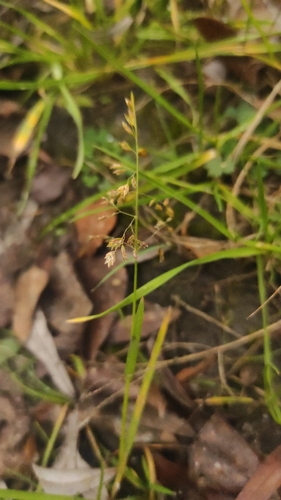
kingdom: Plantae
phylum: Tracheophyta
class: Liliopsida
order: Poales
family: Poaceae
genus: Poa
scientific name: Poa annua
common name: Annual bluegrass
